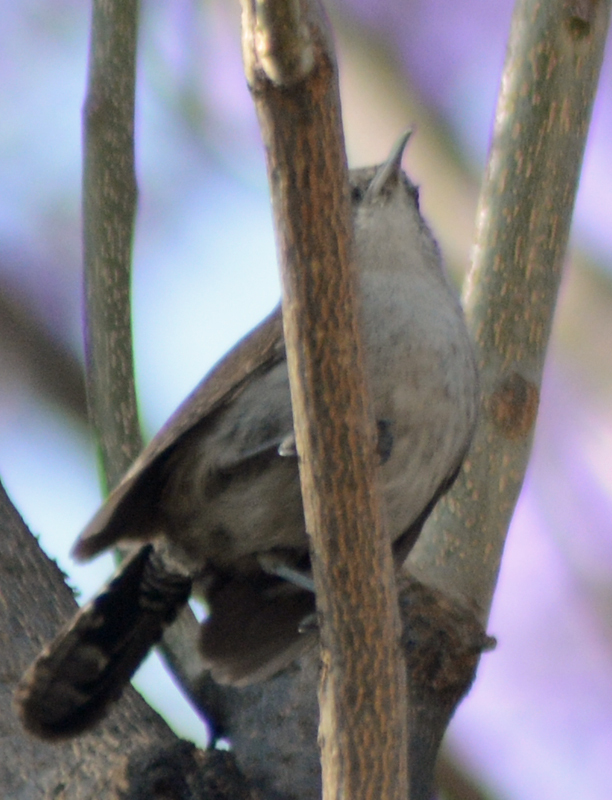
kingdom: Animalia
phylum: Chordata
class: Aves
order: Passeriformes
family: Troglodytidae
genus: Thryomanes
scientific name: Thryomanes bewickii
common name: Bewick's wren
